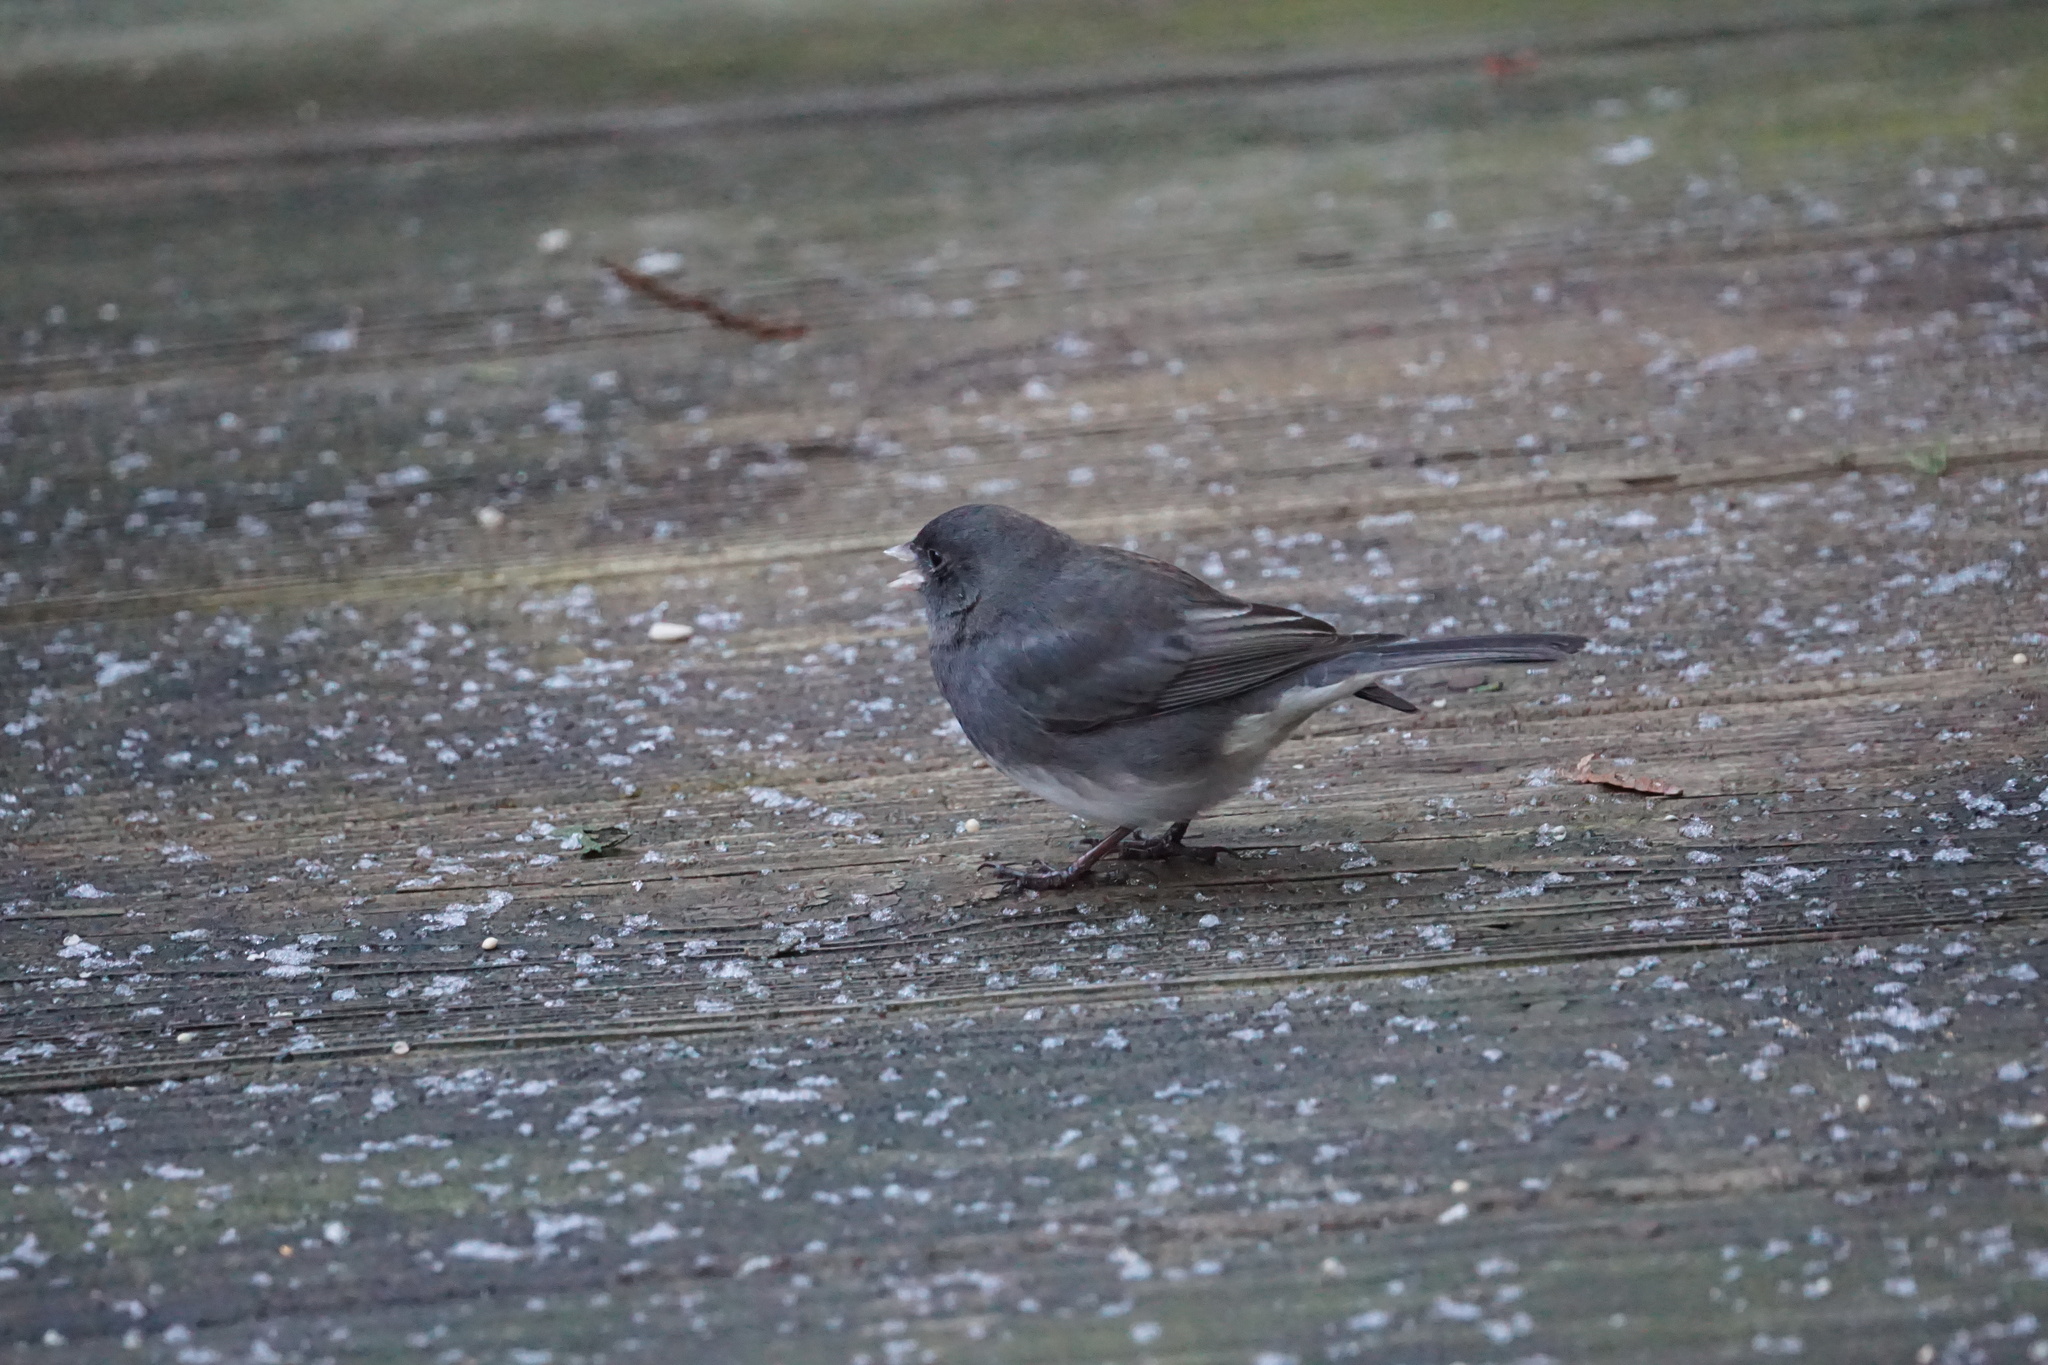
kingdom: Animalia
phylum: Chordata
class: Aves
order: Passeriformes
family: Passerellidae
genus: Junco
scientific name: Junco hyemalis
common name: Dark-eyed junco
